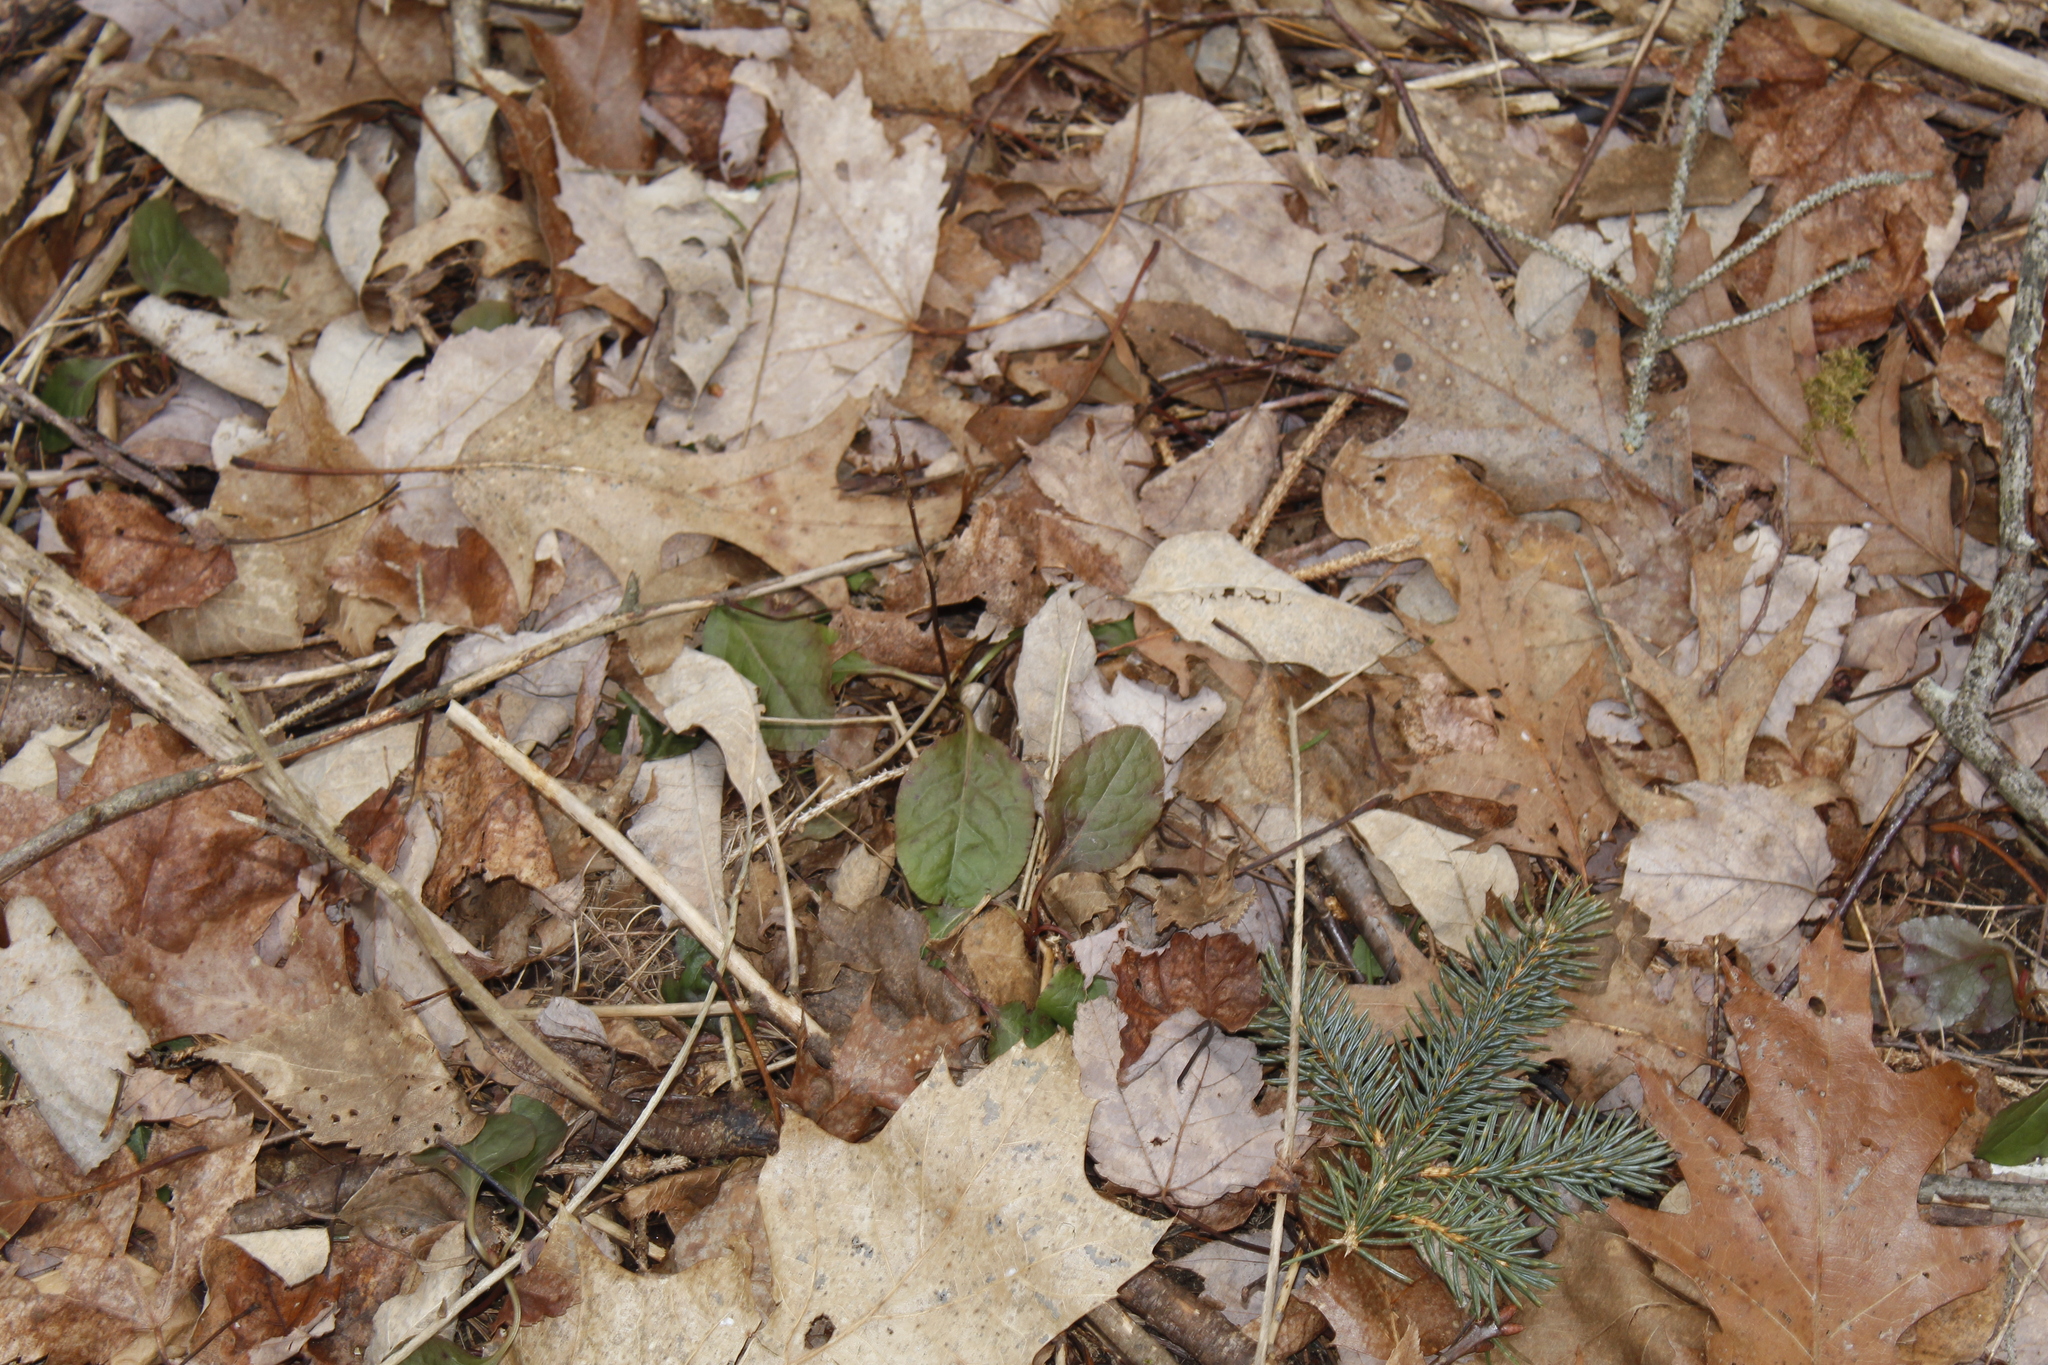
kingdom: Plantae
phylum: Tracheophyta
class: Magnoliopsida
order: Ericales
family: Ericaceae
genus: Pyrola
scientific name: Pyrola elliptica
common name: Shinleaf
